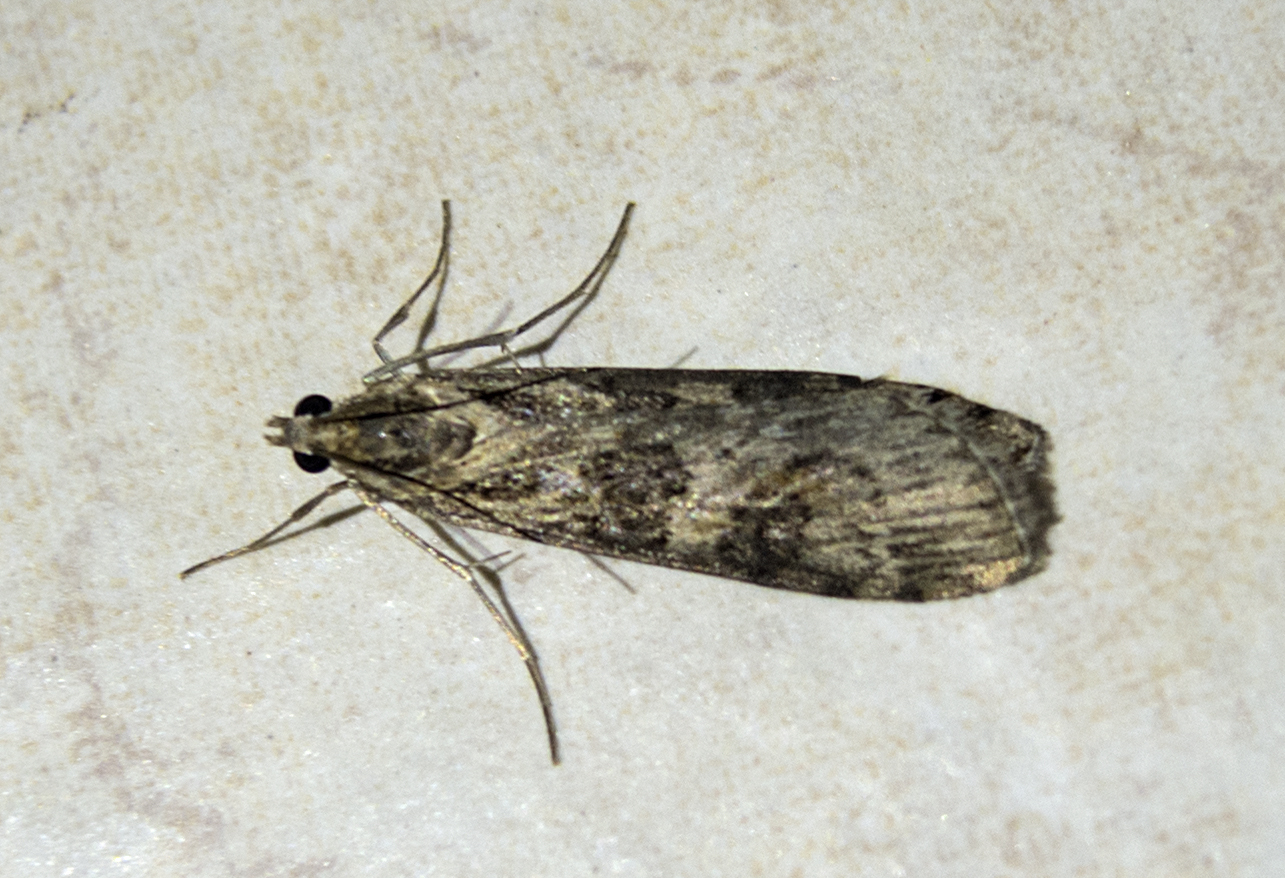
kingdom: Animalia
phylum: Arthropoda
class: Insecta
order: Lepidoptera
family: Crambidae
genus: Nomophila
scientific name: Nomophila noctuella
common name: Rush veneer
